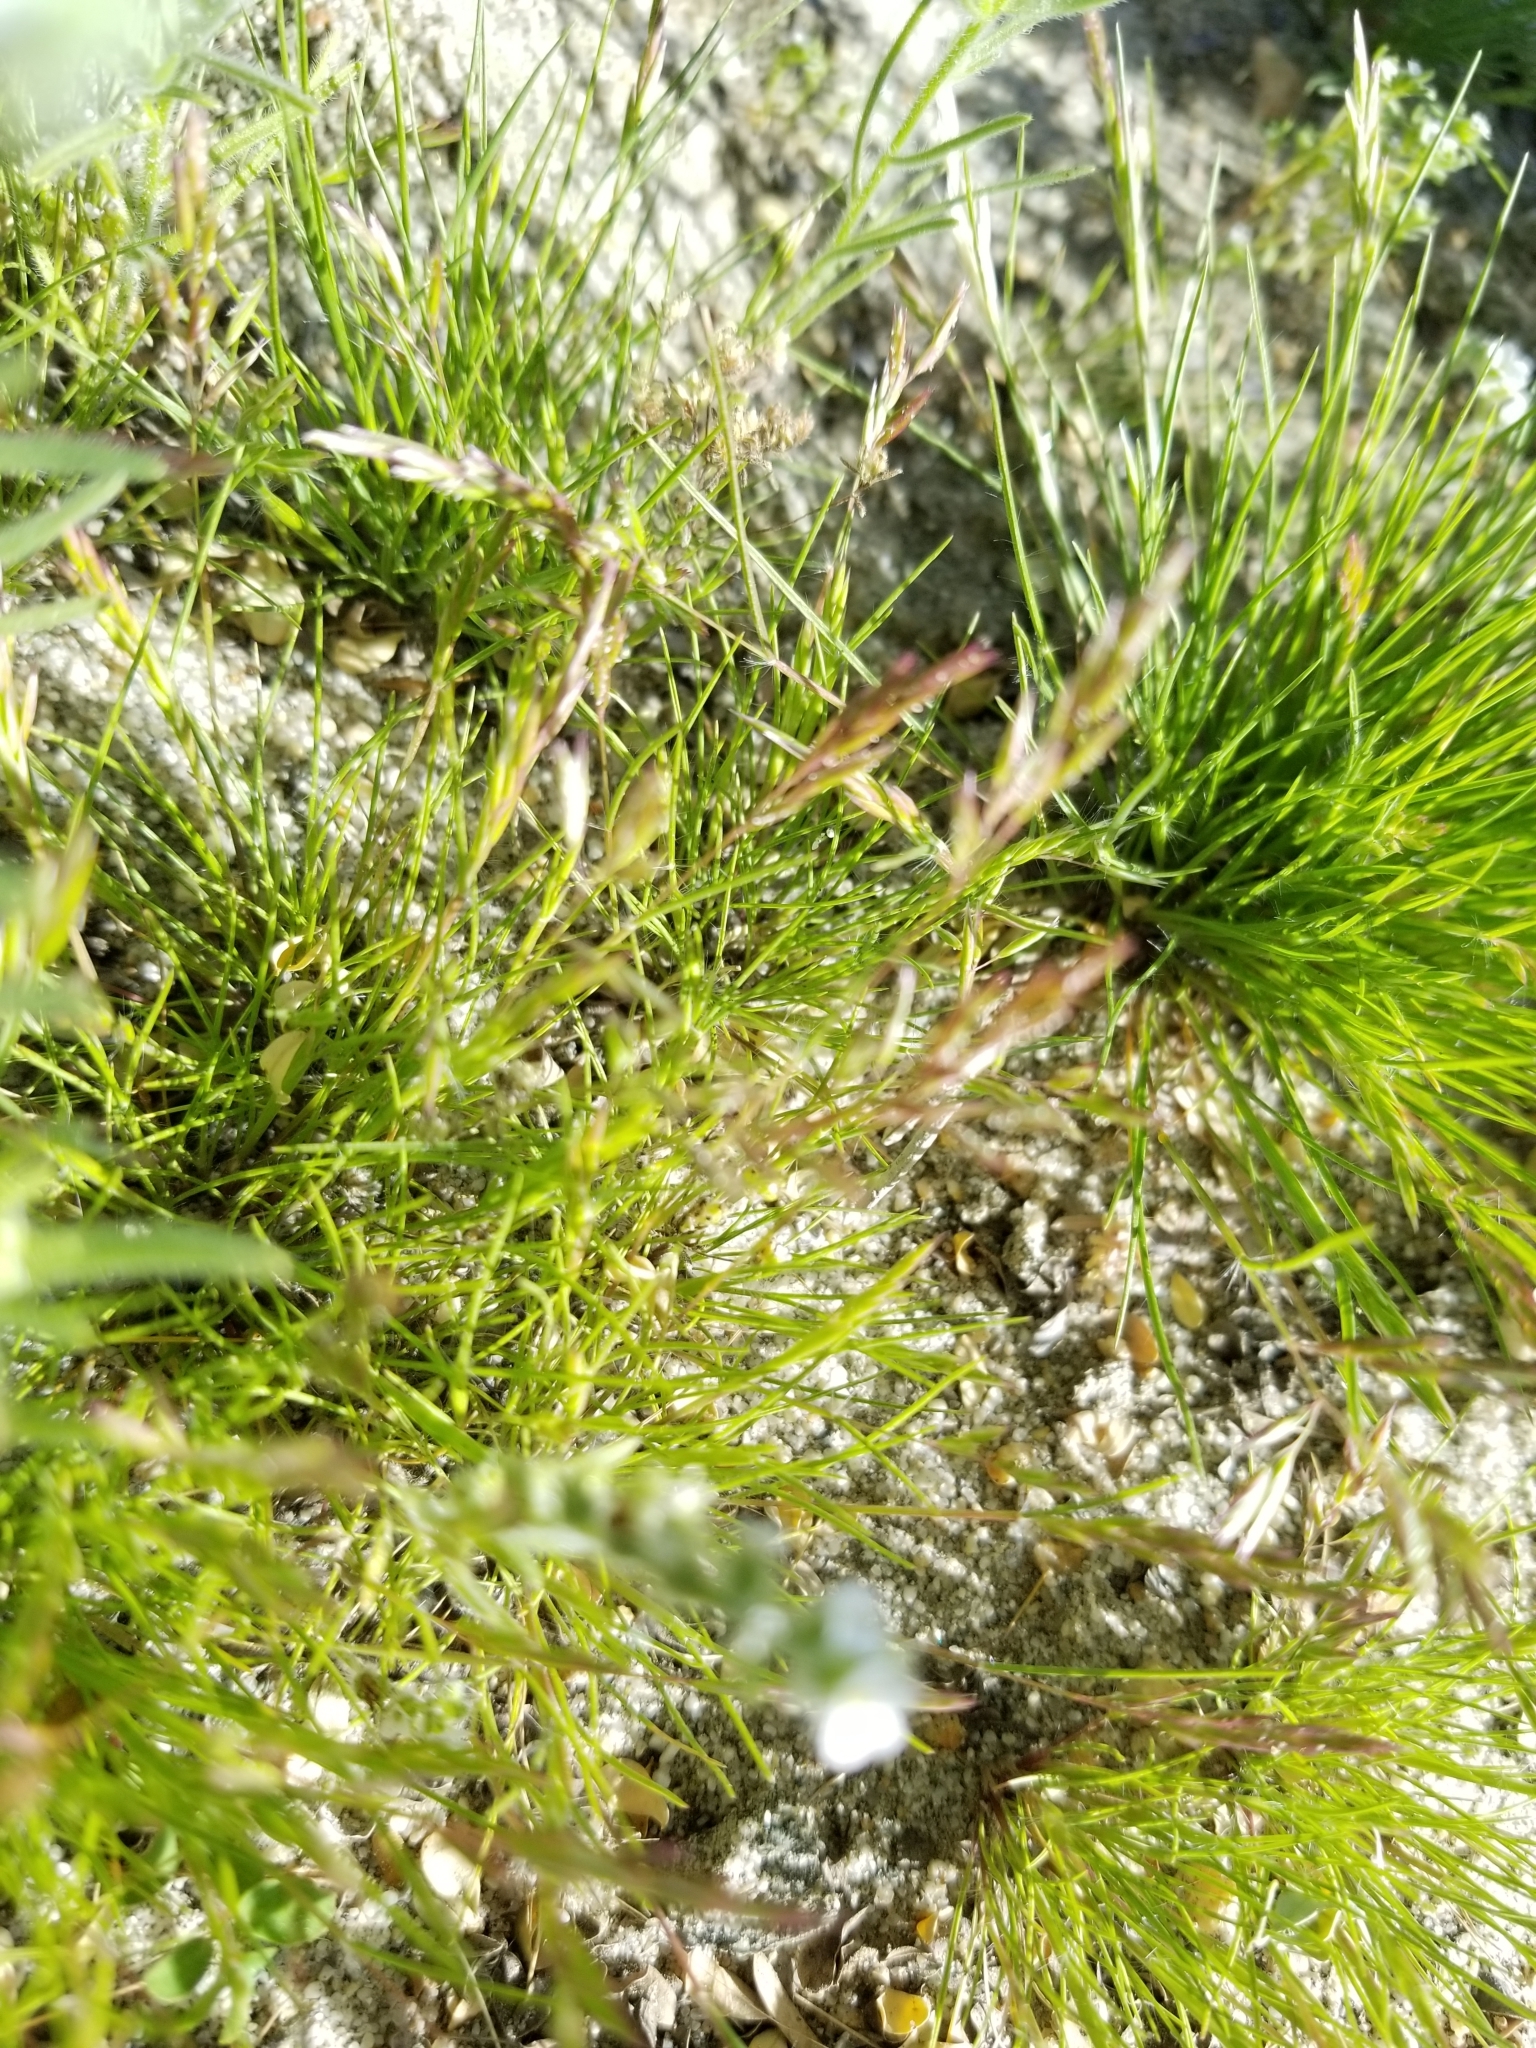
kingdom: Plantae
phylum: Tracheophyta
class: Liliopsida
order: Poales
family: Poaceae
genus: Schismus
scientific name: Schismus barbatus
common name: Kelch-grass
